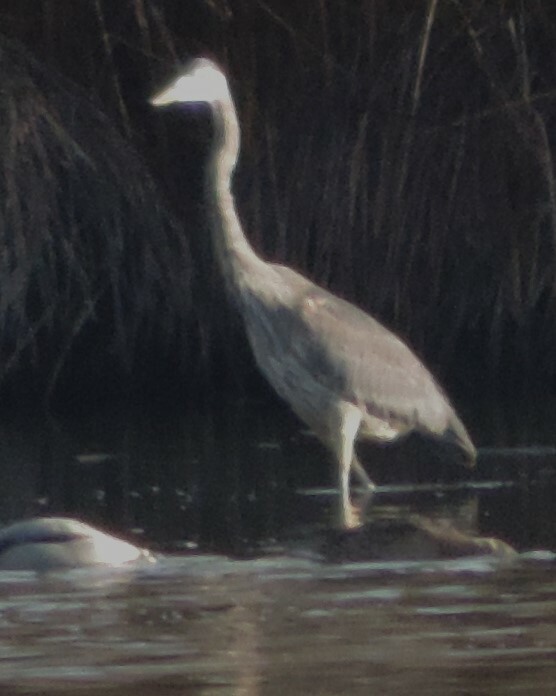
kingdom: Animalia
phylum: Chordata
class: Aves
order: Pelecaniformes
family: Ardeidae
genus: Ardea
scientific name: Ardea herodias
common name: Great blue heron
